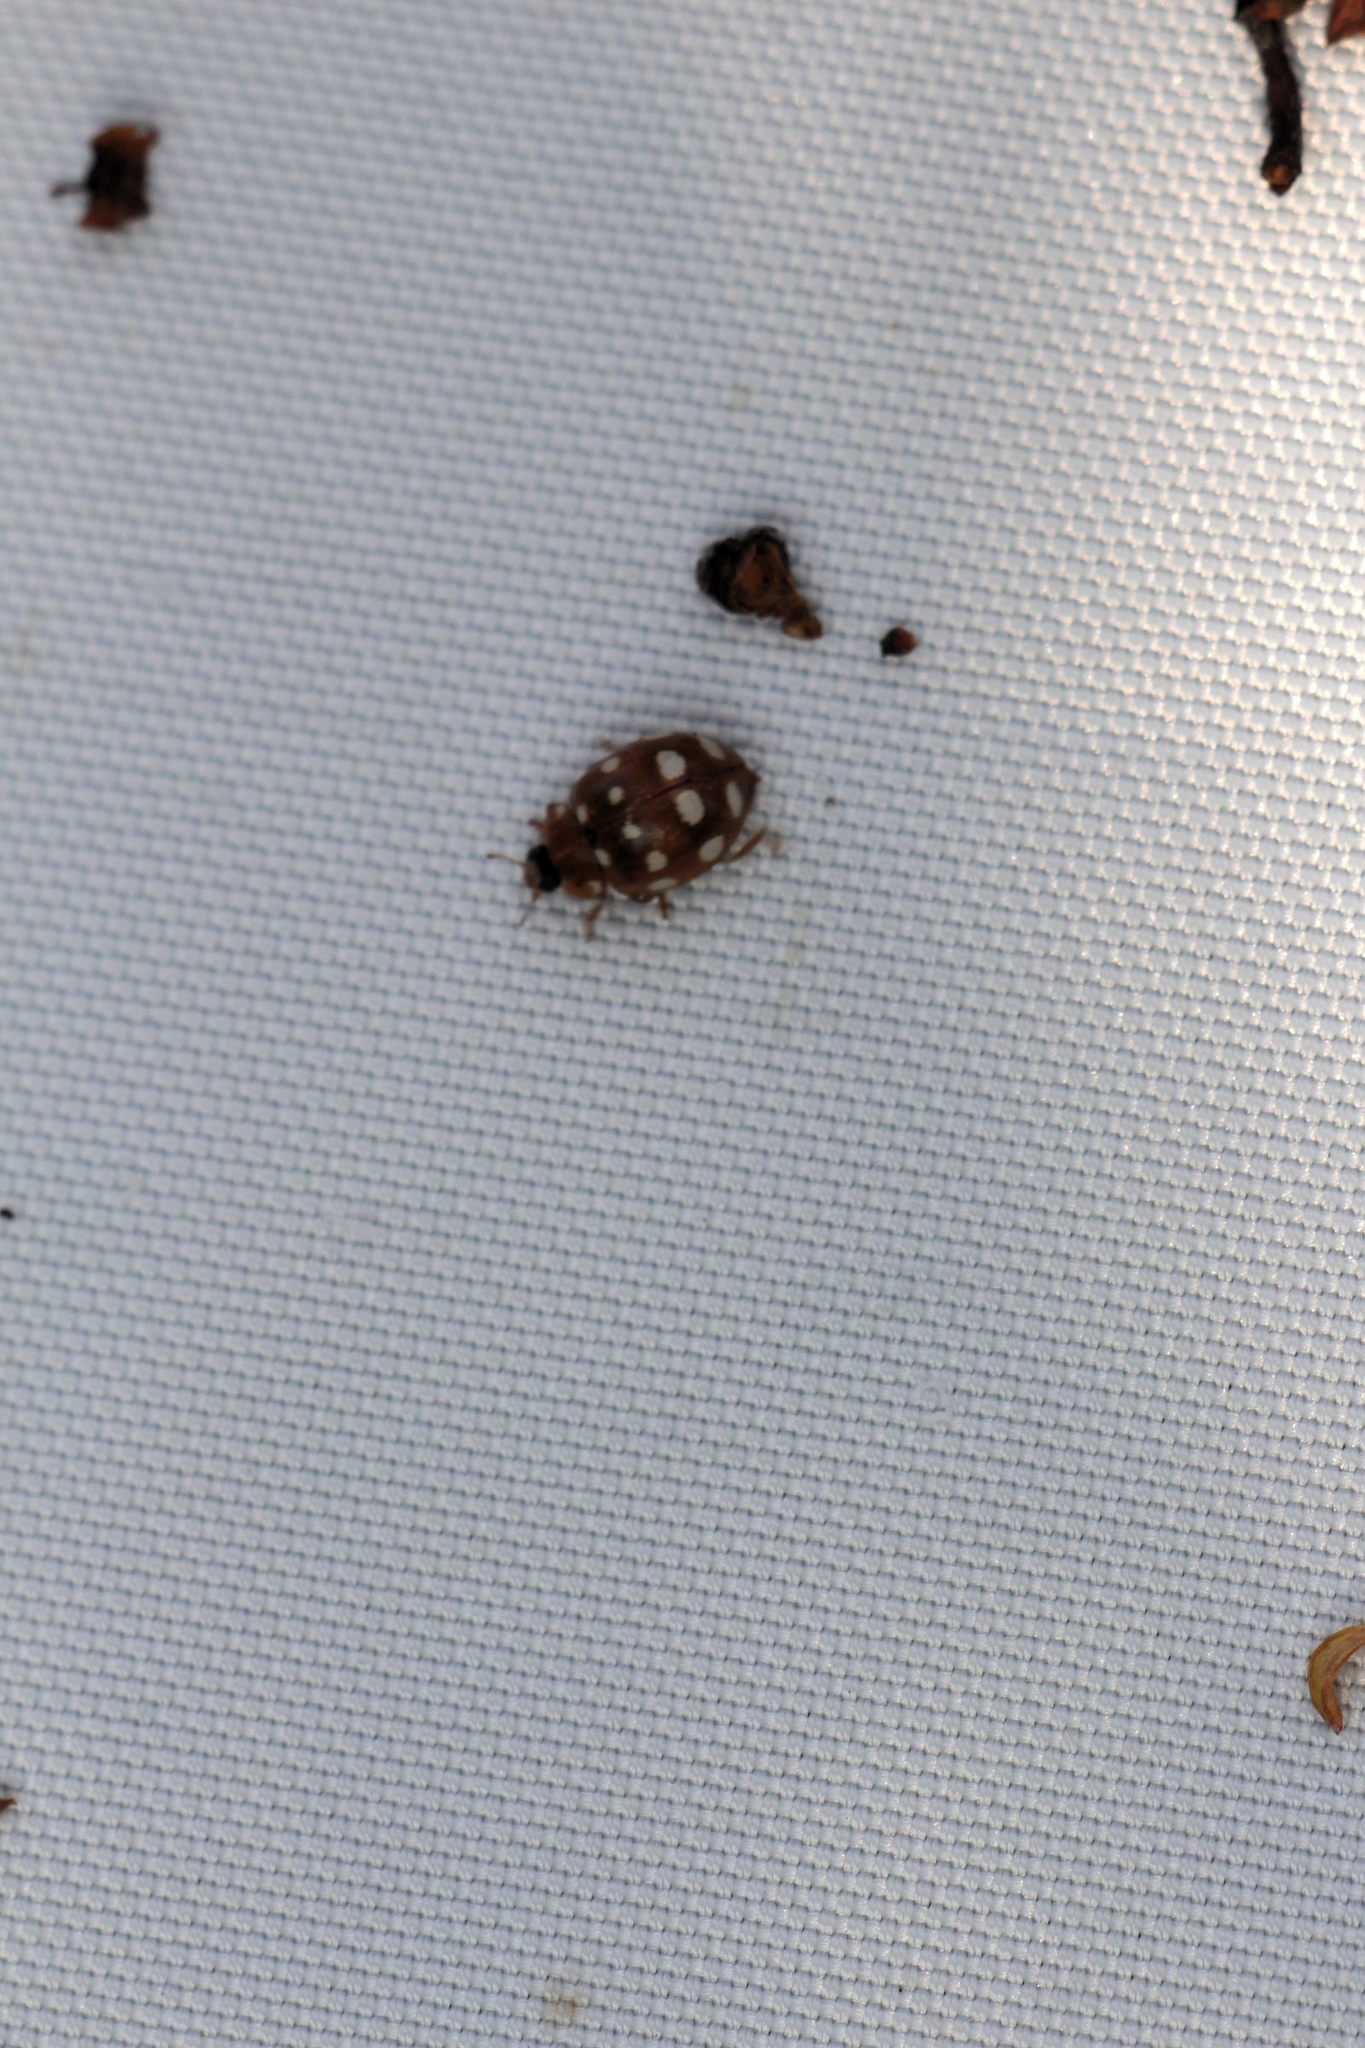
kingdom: Animalia
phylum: Arthropoda
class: Insecta
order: Coleoptera
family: Coccinellidae
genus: Calvia
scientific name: Calvia quatuordecimguttata
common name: Cream-spot ladybird
